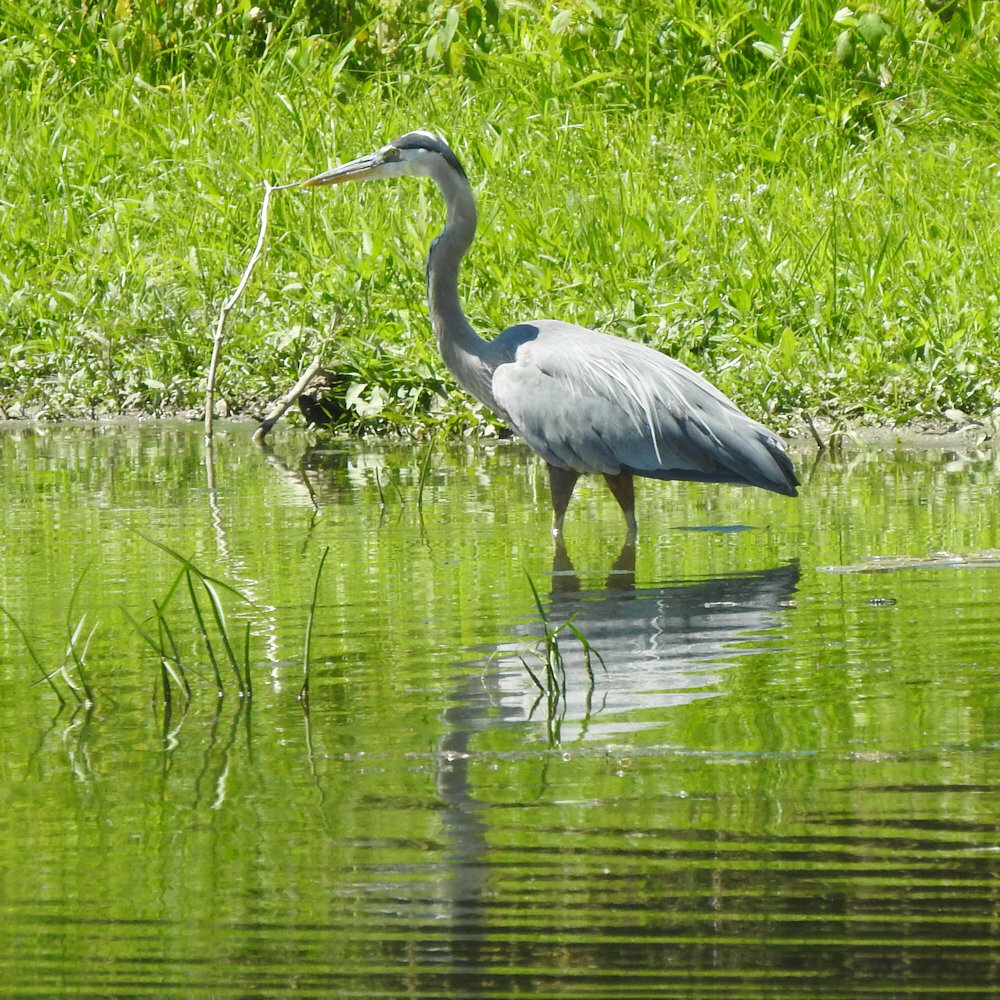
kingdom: Animalia
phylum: Chordata
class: Aves
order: Pelecaniformes
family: Ardeidae
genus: Ardea
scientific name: Ardea herodias
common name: Great blue heron
